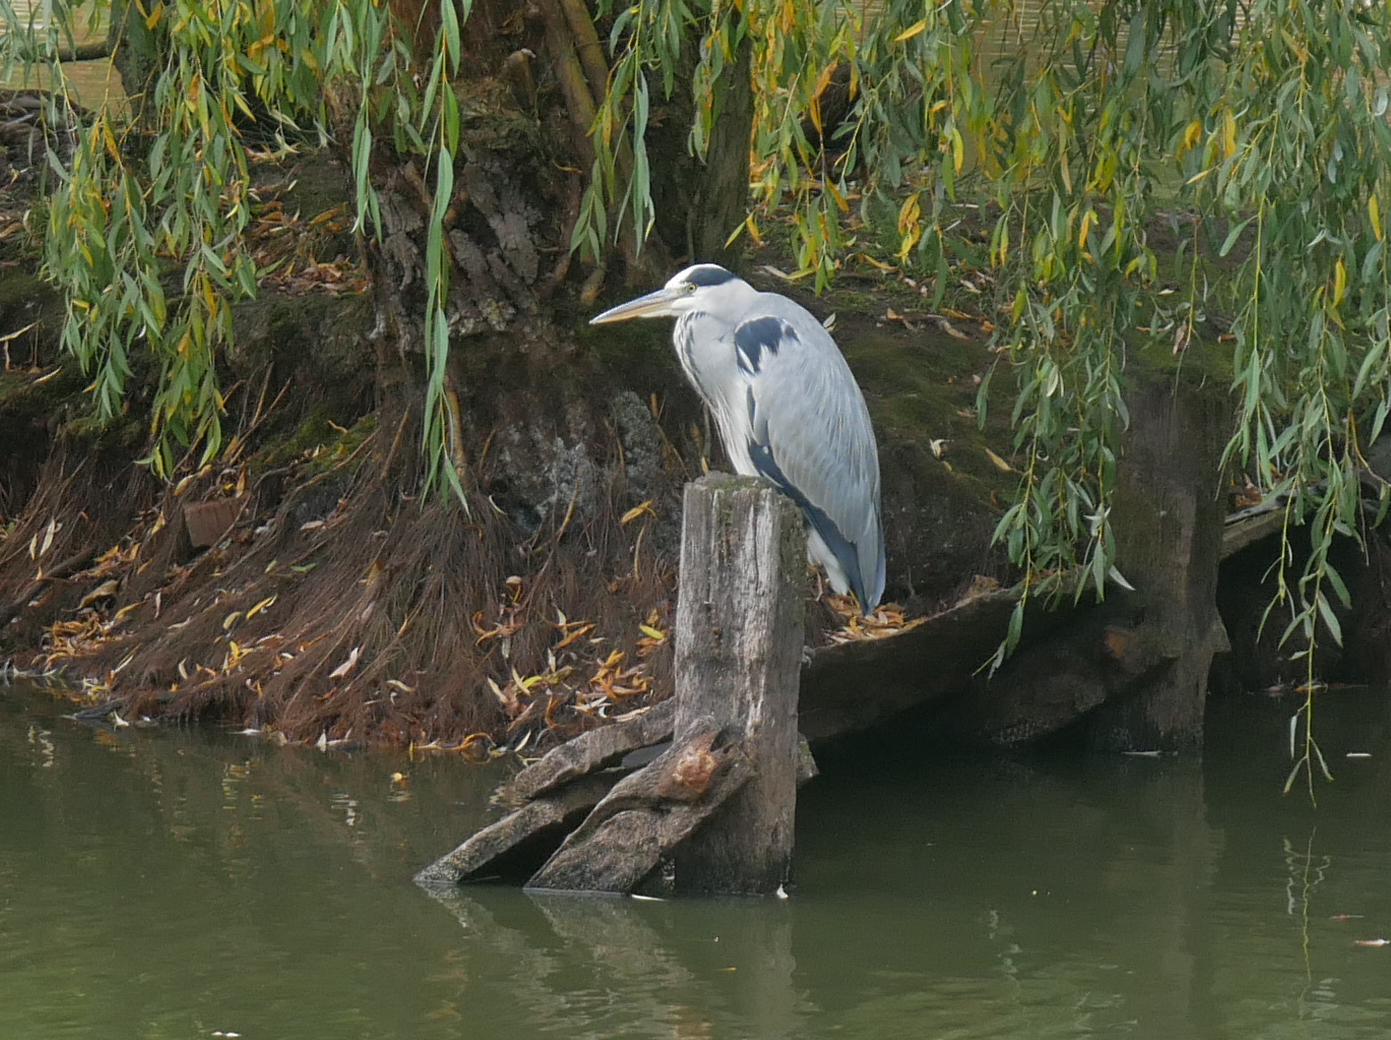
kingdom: Animalia
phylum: Chordata
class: Aves
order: Pelecaniformes
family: Ardeidae
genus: Ardea
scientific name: Ardea cinerea
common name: Grey heron
